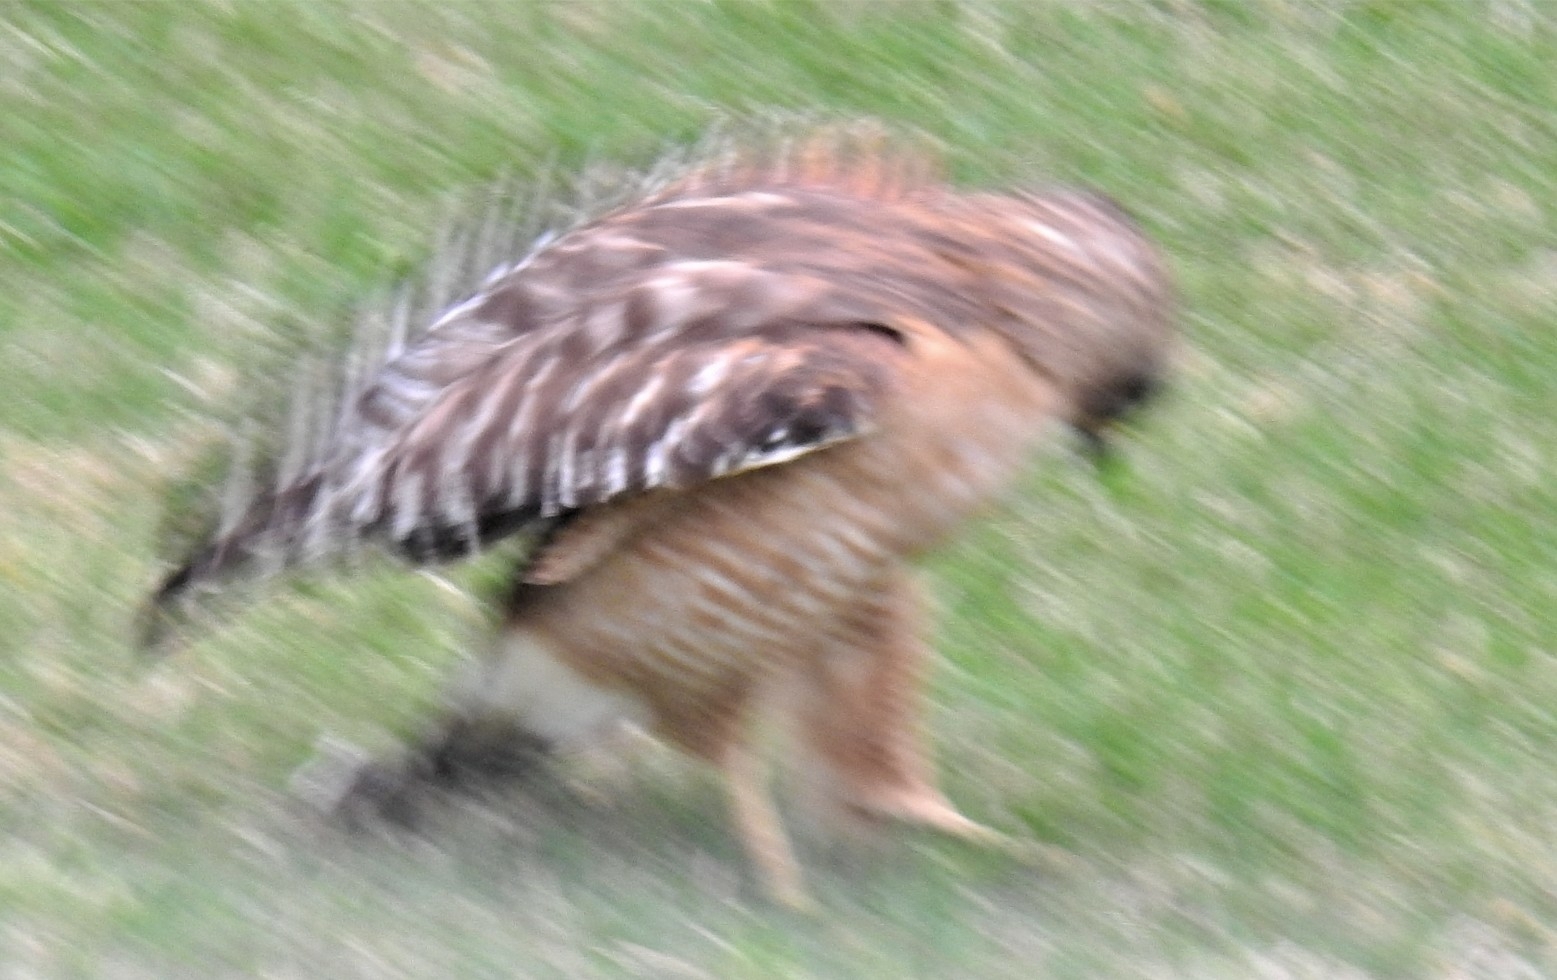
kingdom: Animalia
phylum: Chordata
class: Aves
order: Accipitriformes
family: Accipitridae
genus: Buteo
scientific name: Buteo lineatus
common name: Red-shouldered hawk
